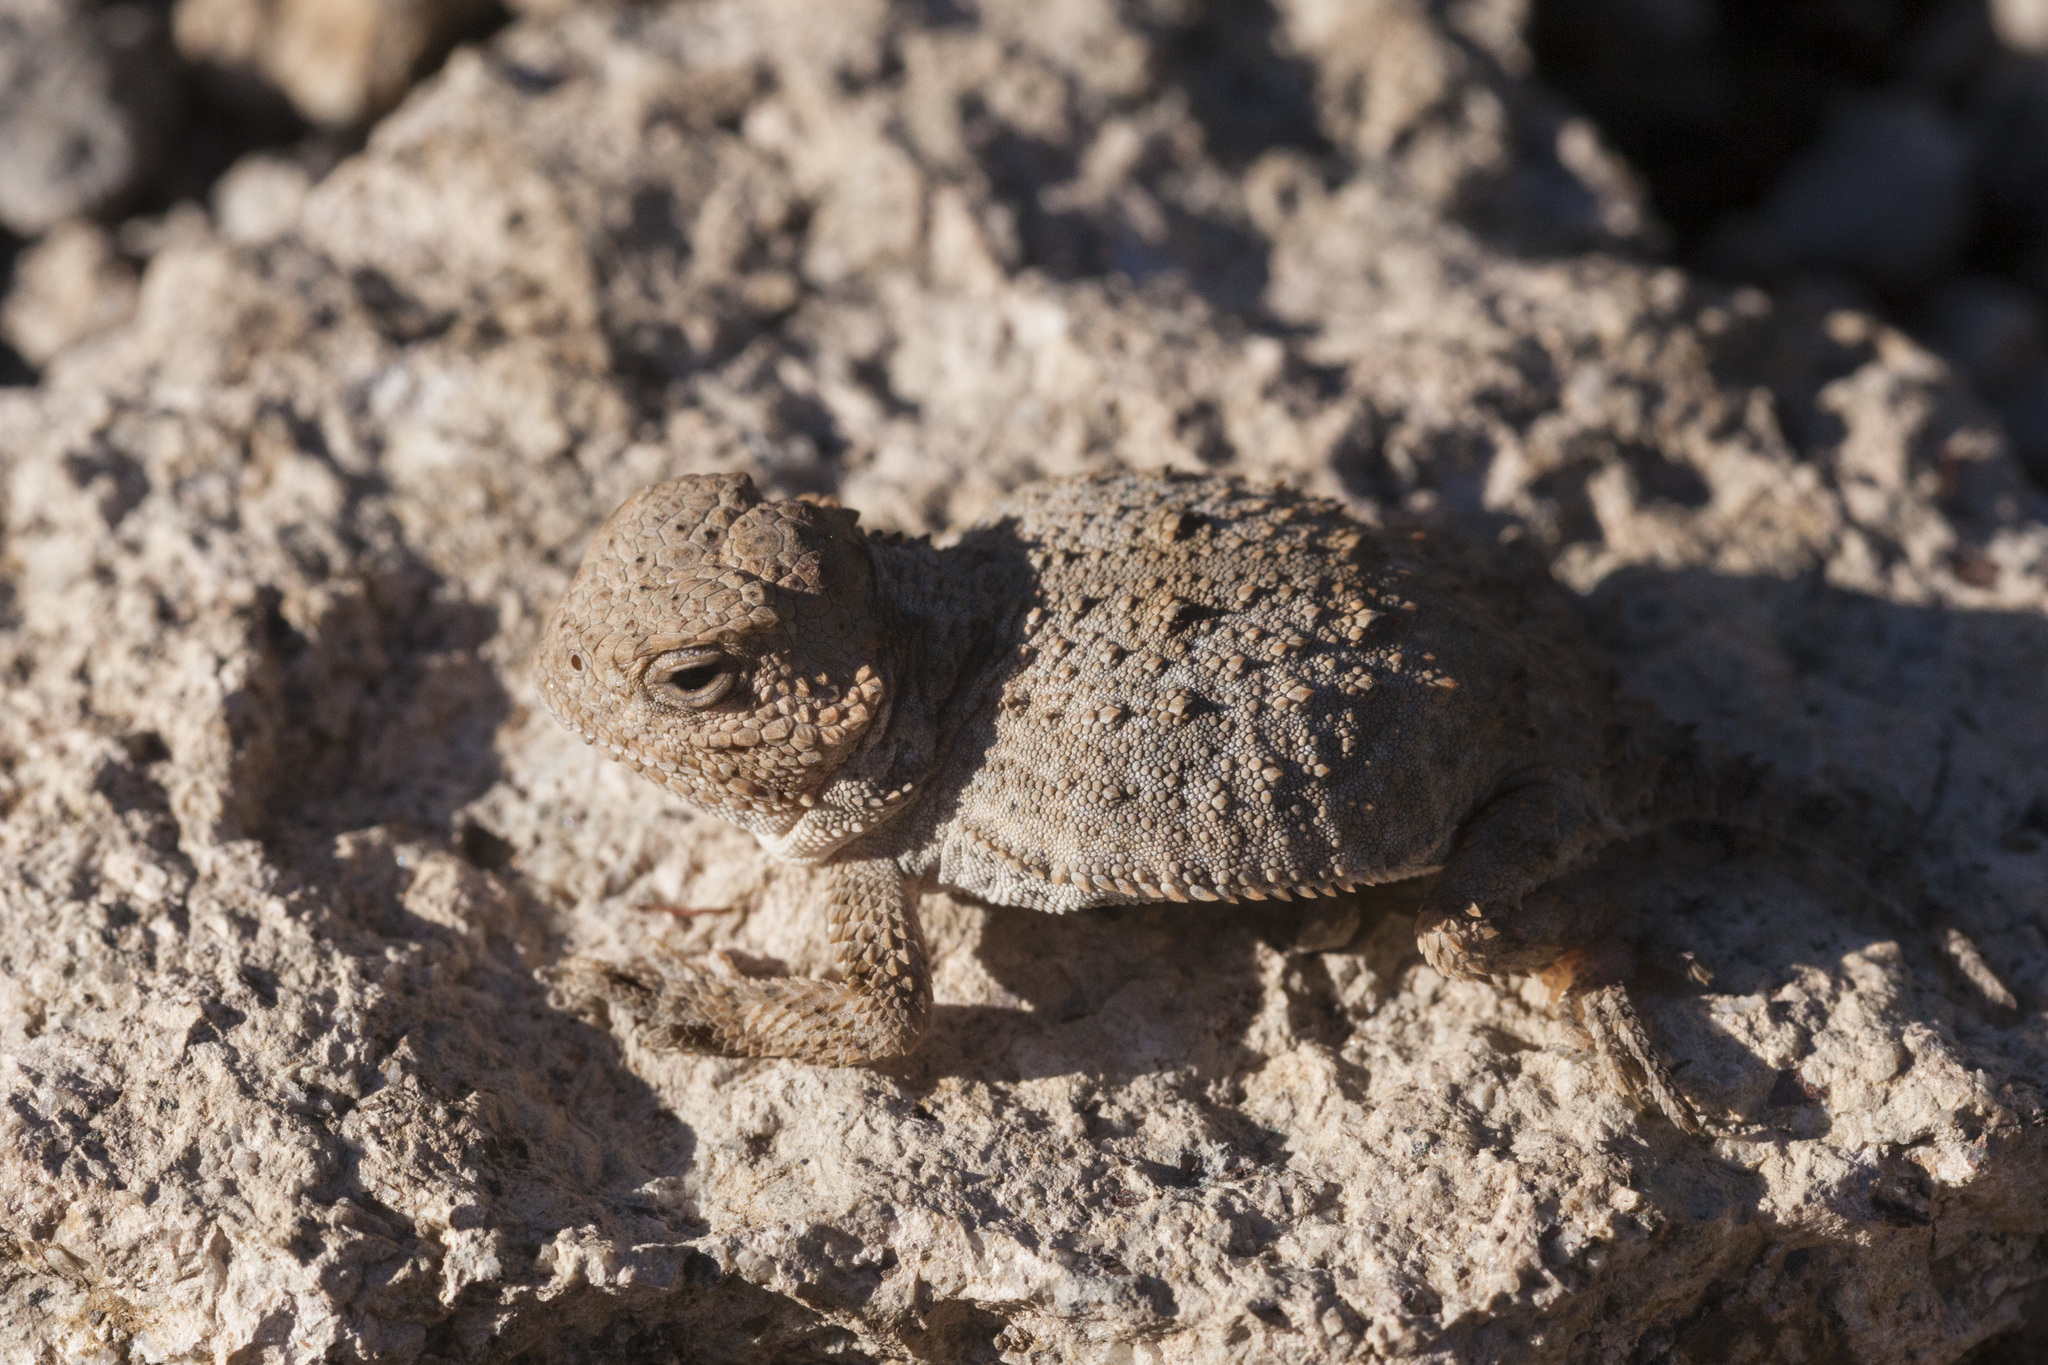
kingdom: Animalia
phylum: Chordata
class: Squamata
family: Phrynosomatidae
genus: Phrynosoma
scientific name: Phrynosoma hernandesi
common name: Greater short-horned lizard
